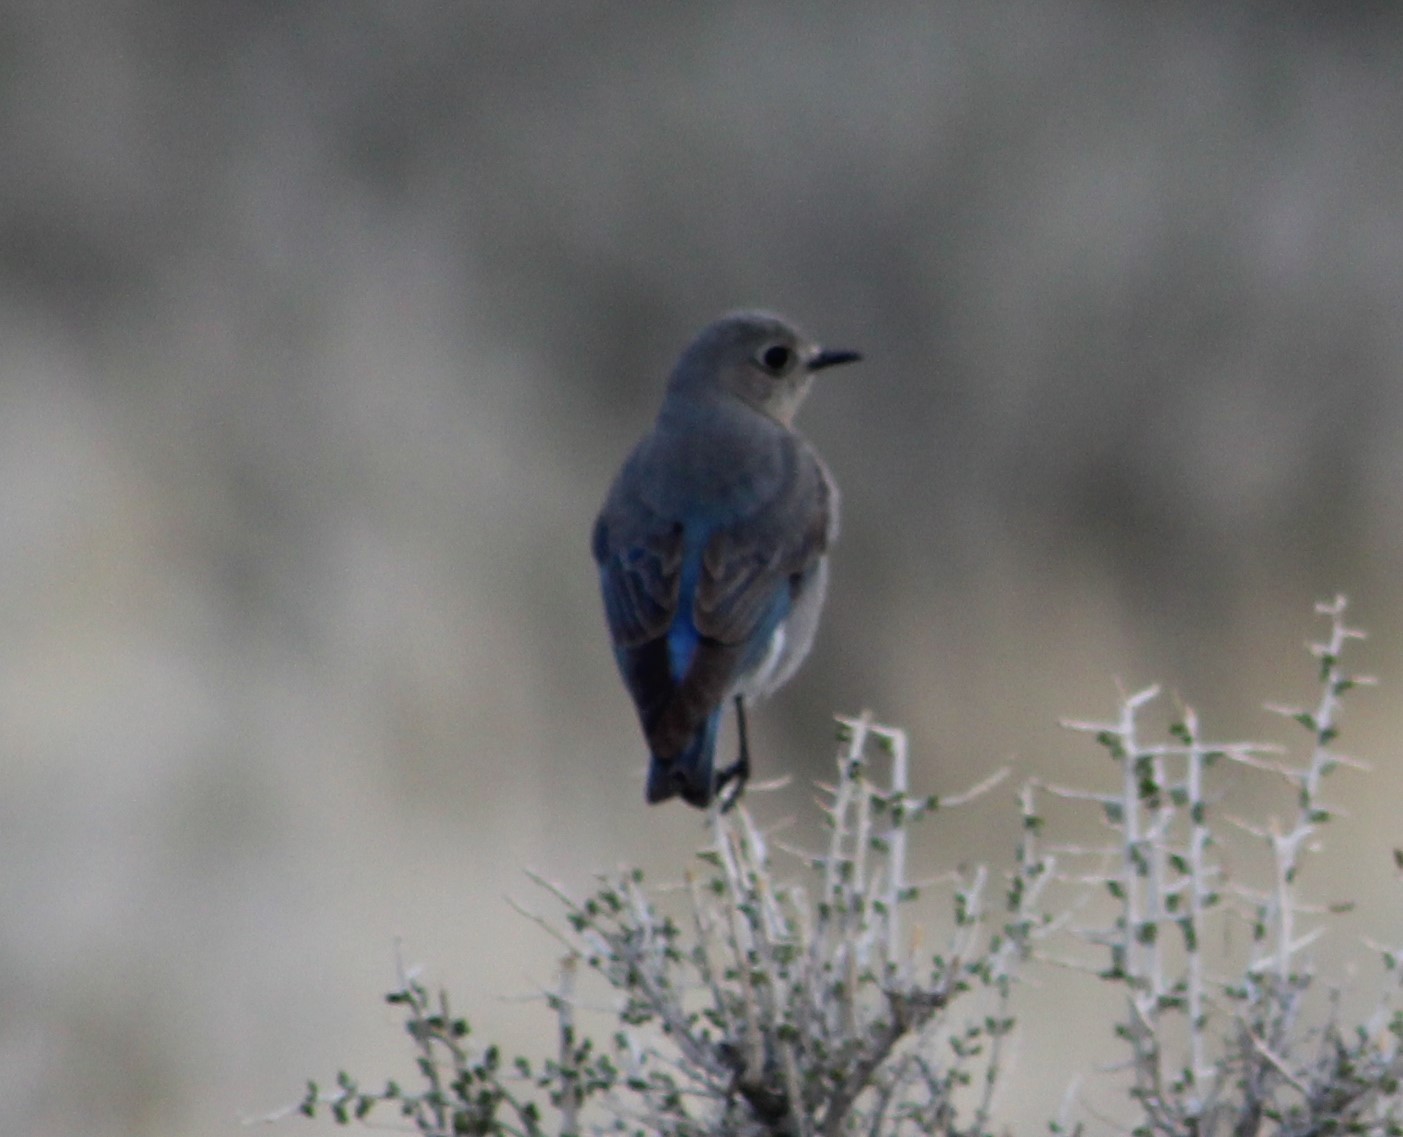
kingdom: Animalia
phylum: Chordata
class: Aves
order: Passeriformes
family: Turdidae
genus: Sialia
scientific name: Sialia currucoides
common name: Mountain bluebird
